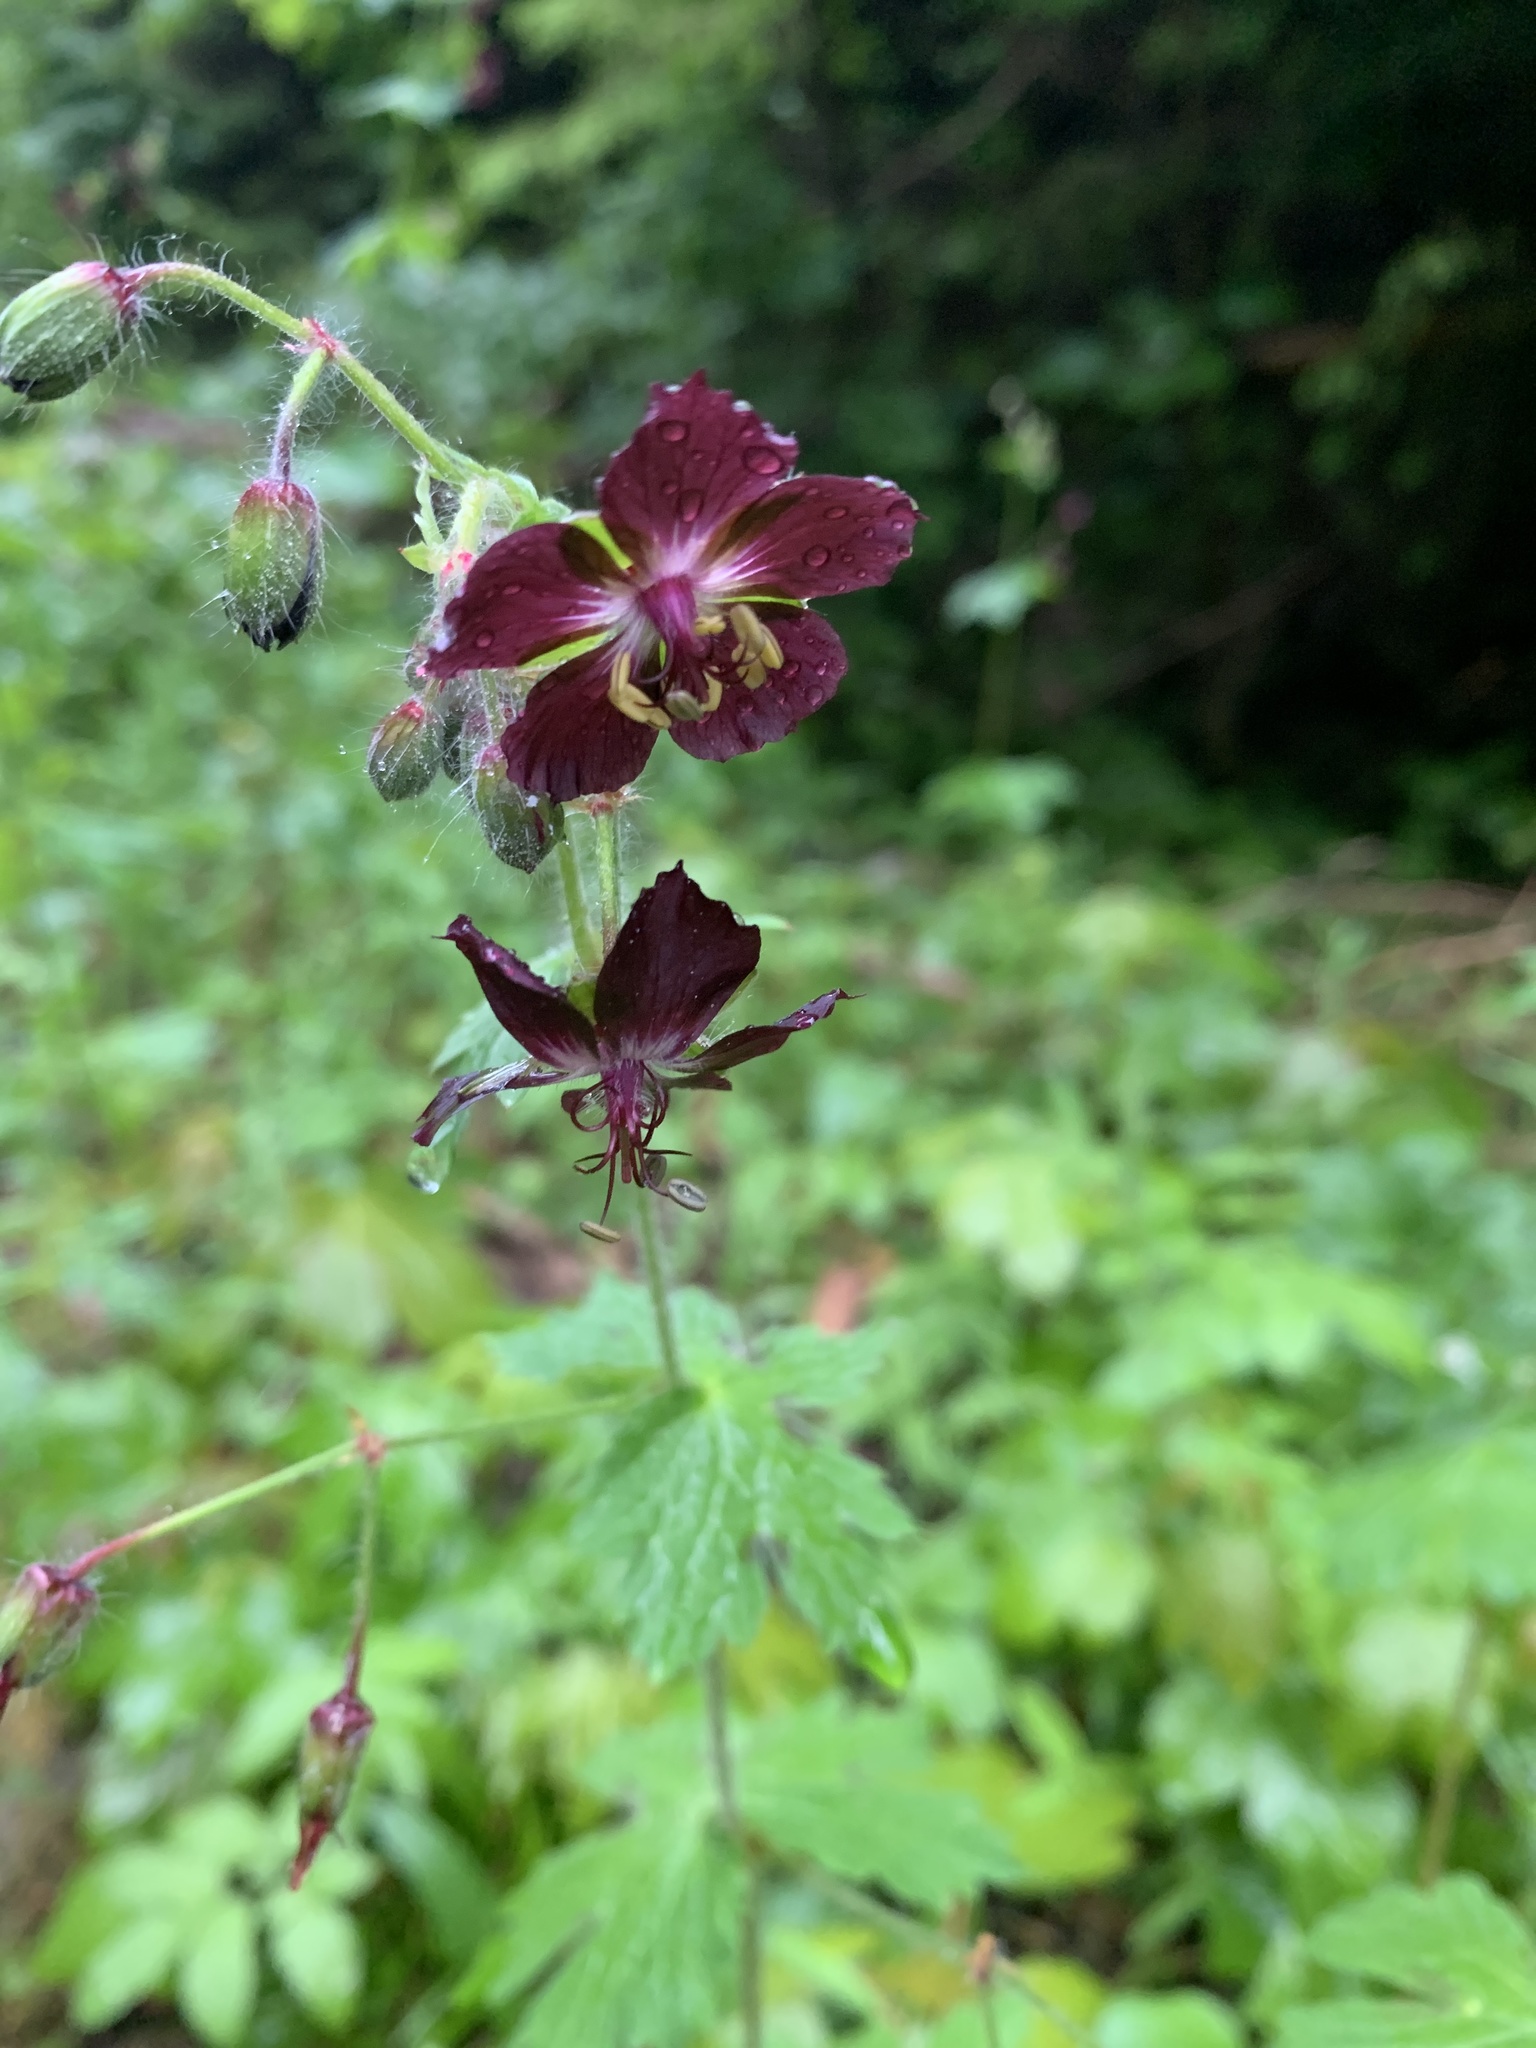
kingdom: Plantae
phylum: Tracheophyta
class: Magnoliopsida
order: Geraniales
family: Geraniaceae
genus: Geranium
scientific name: Geranium phaeum
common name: Dusky crane's-bill
